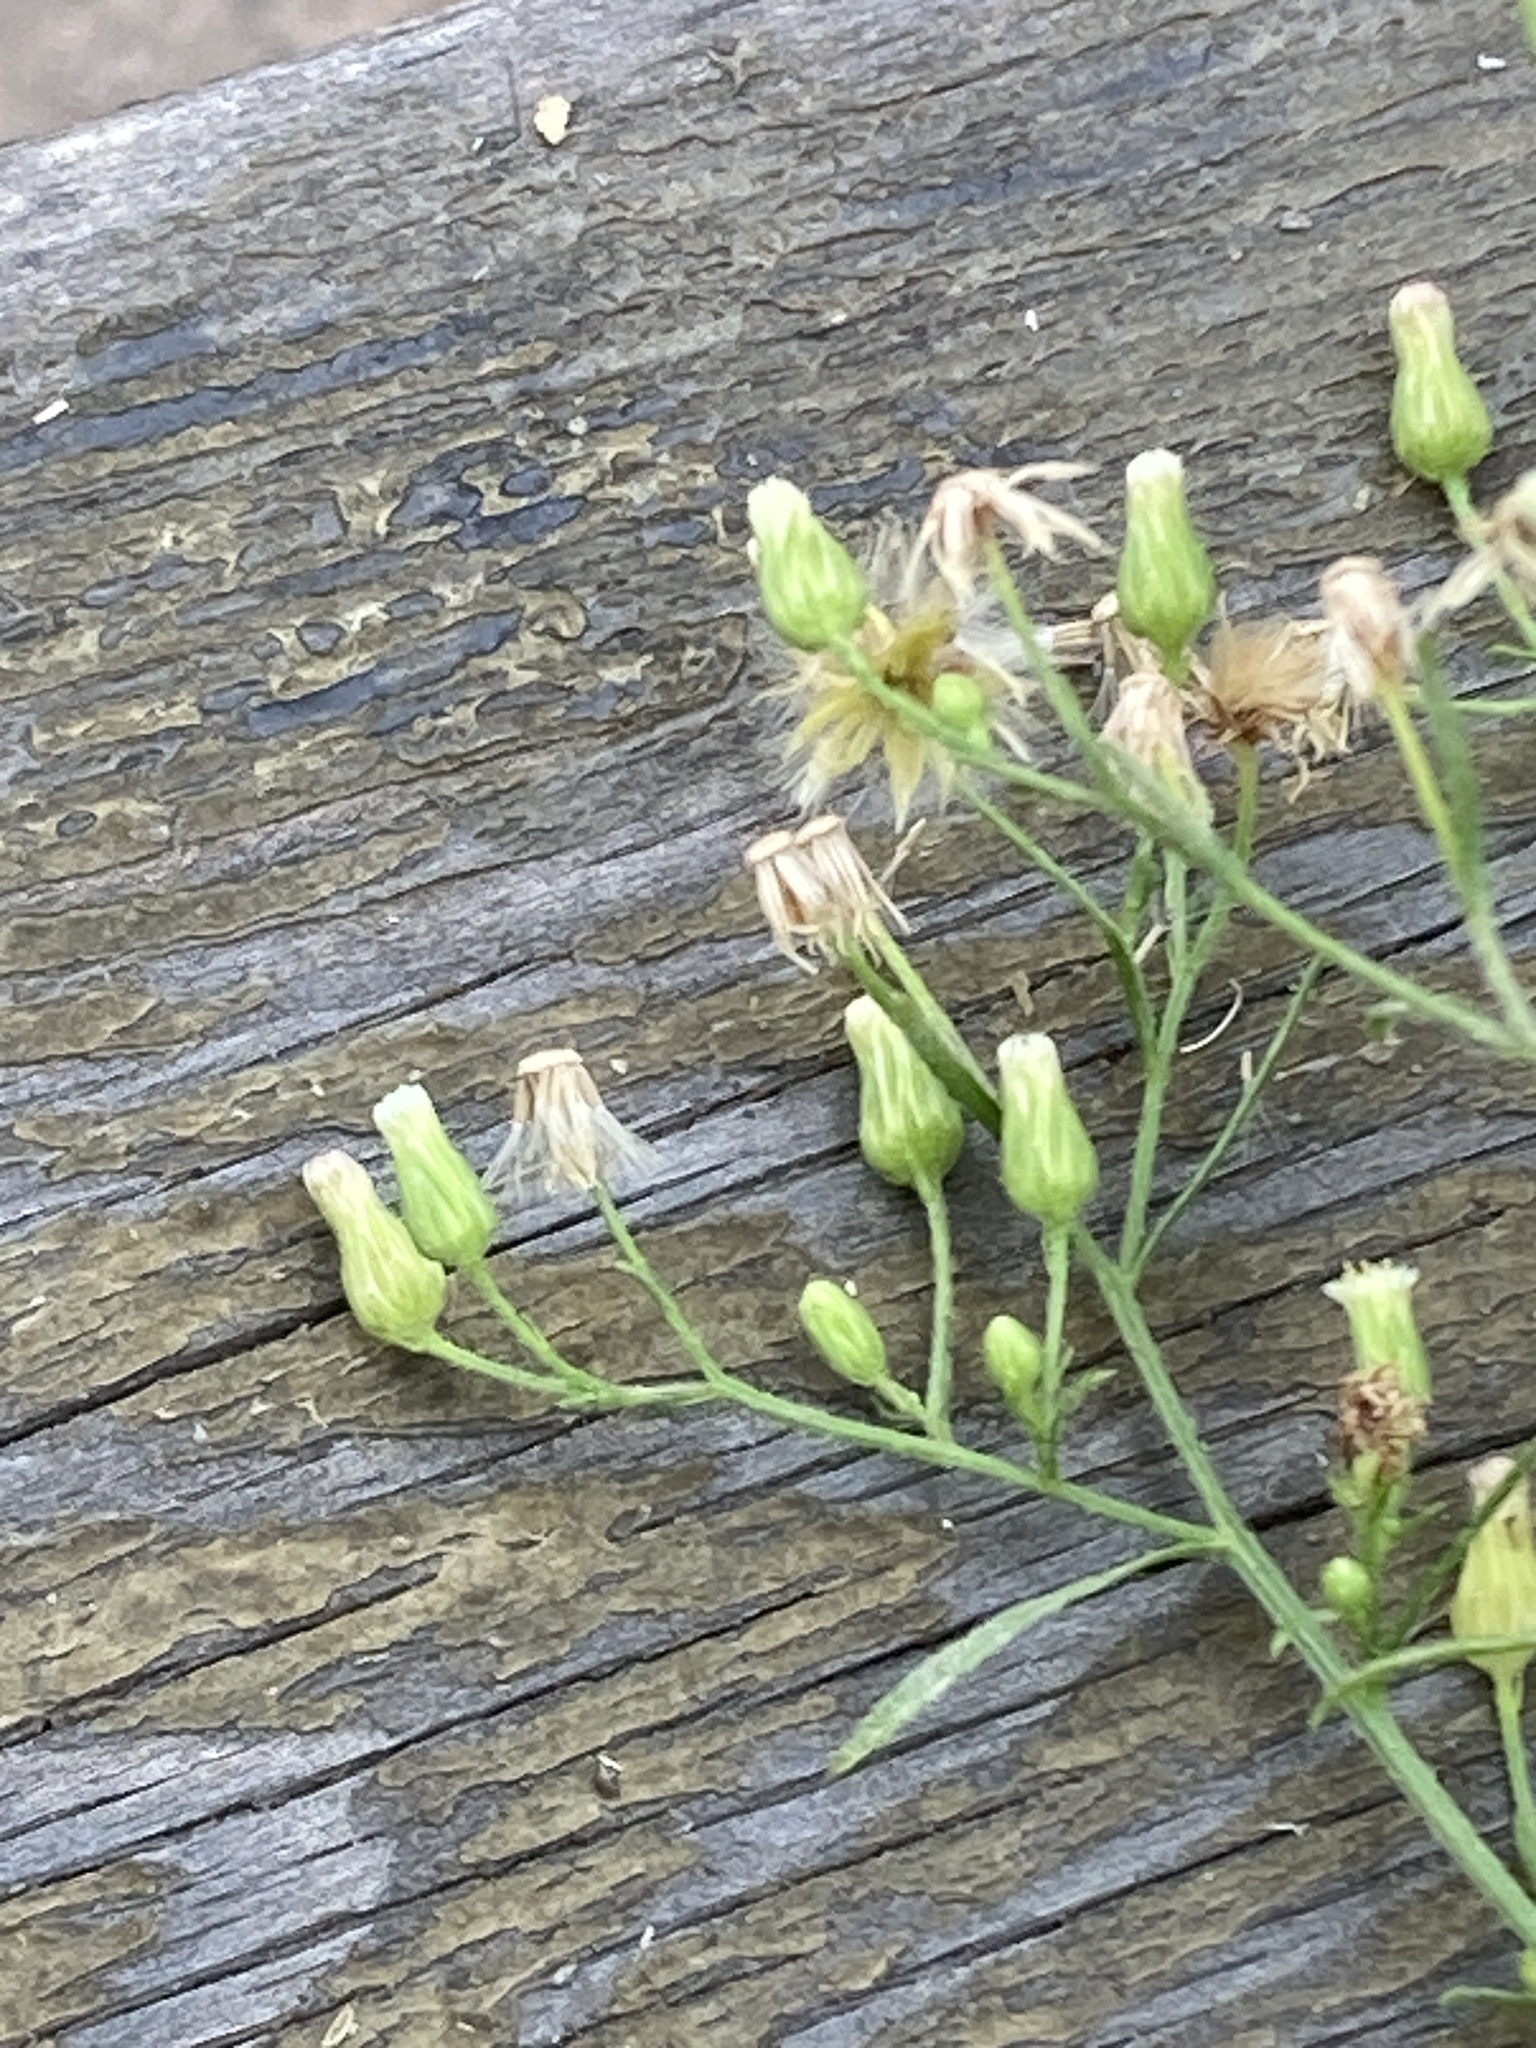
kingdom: Plantae
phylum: Tracheophyta
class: Magnoliopsida
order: Asterales
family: Asteraceae
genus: Erigeron
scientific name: Erigeron canadensis
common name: Canadian fleabane
